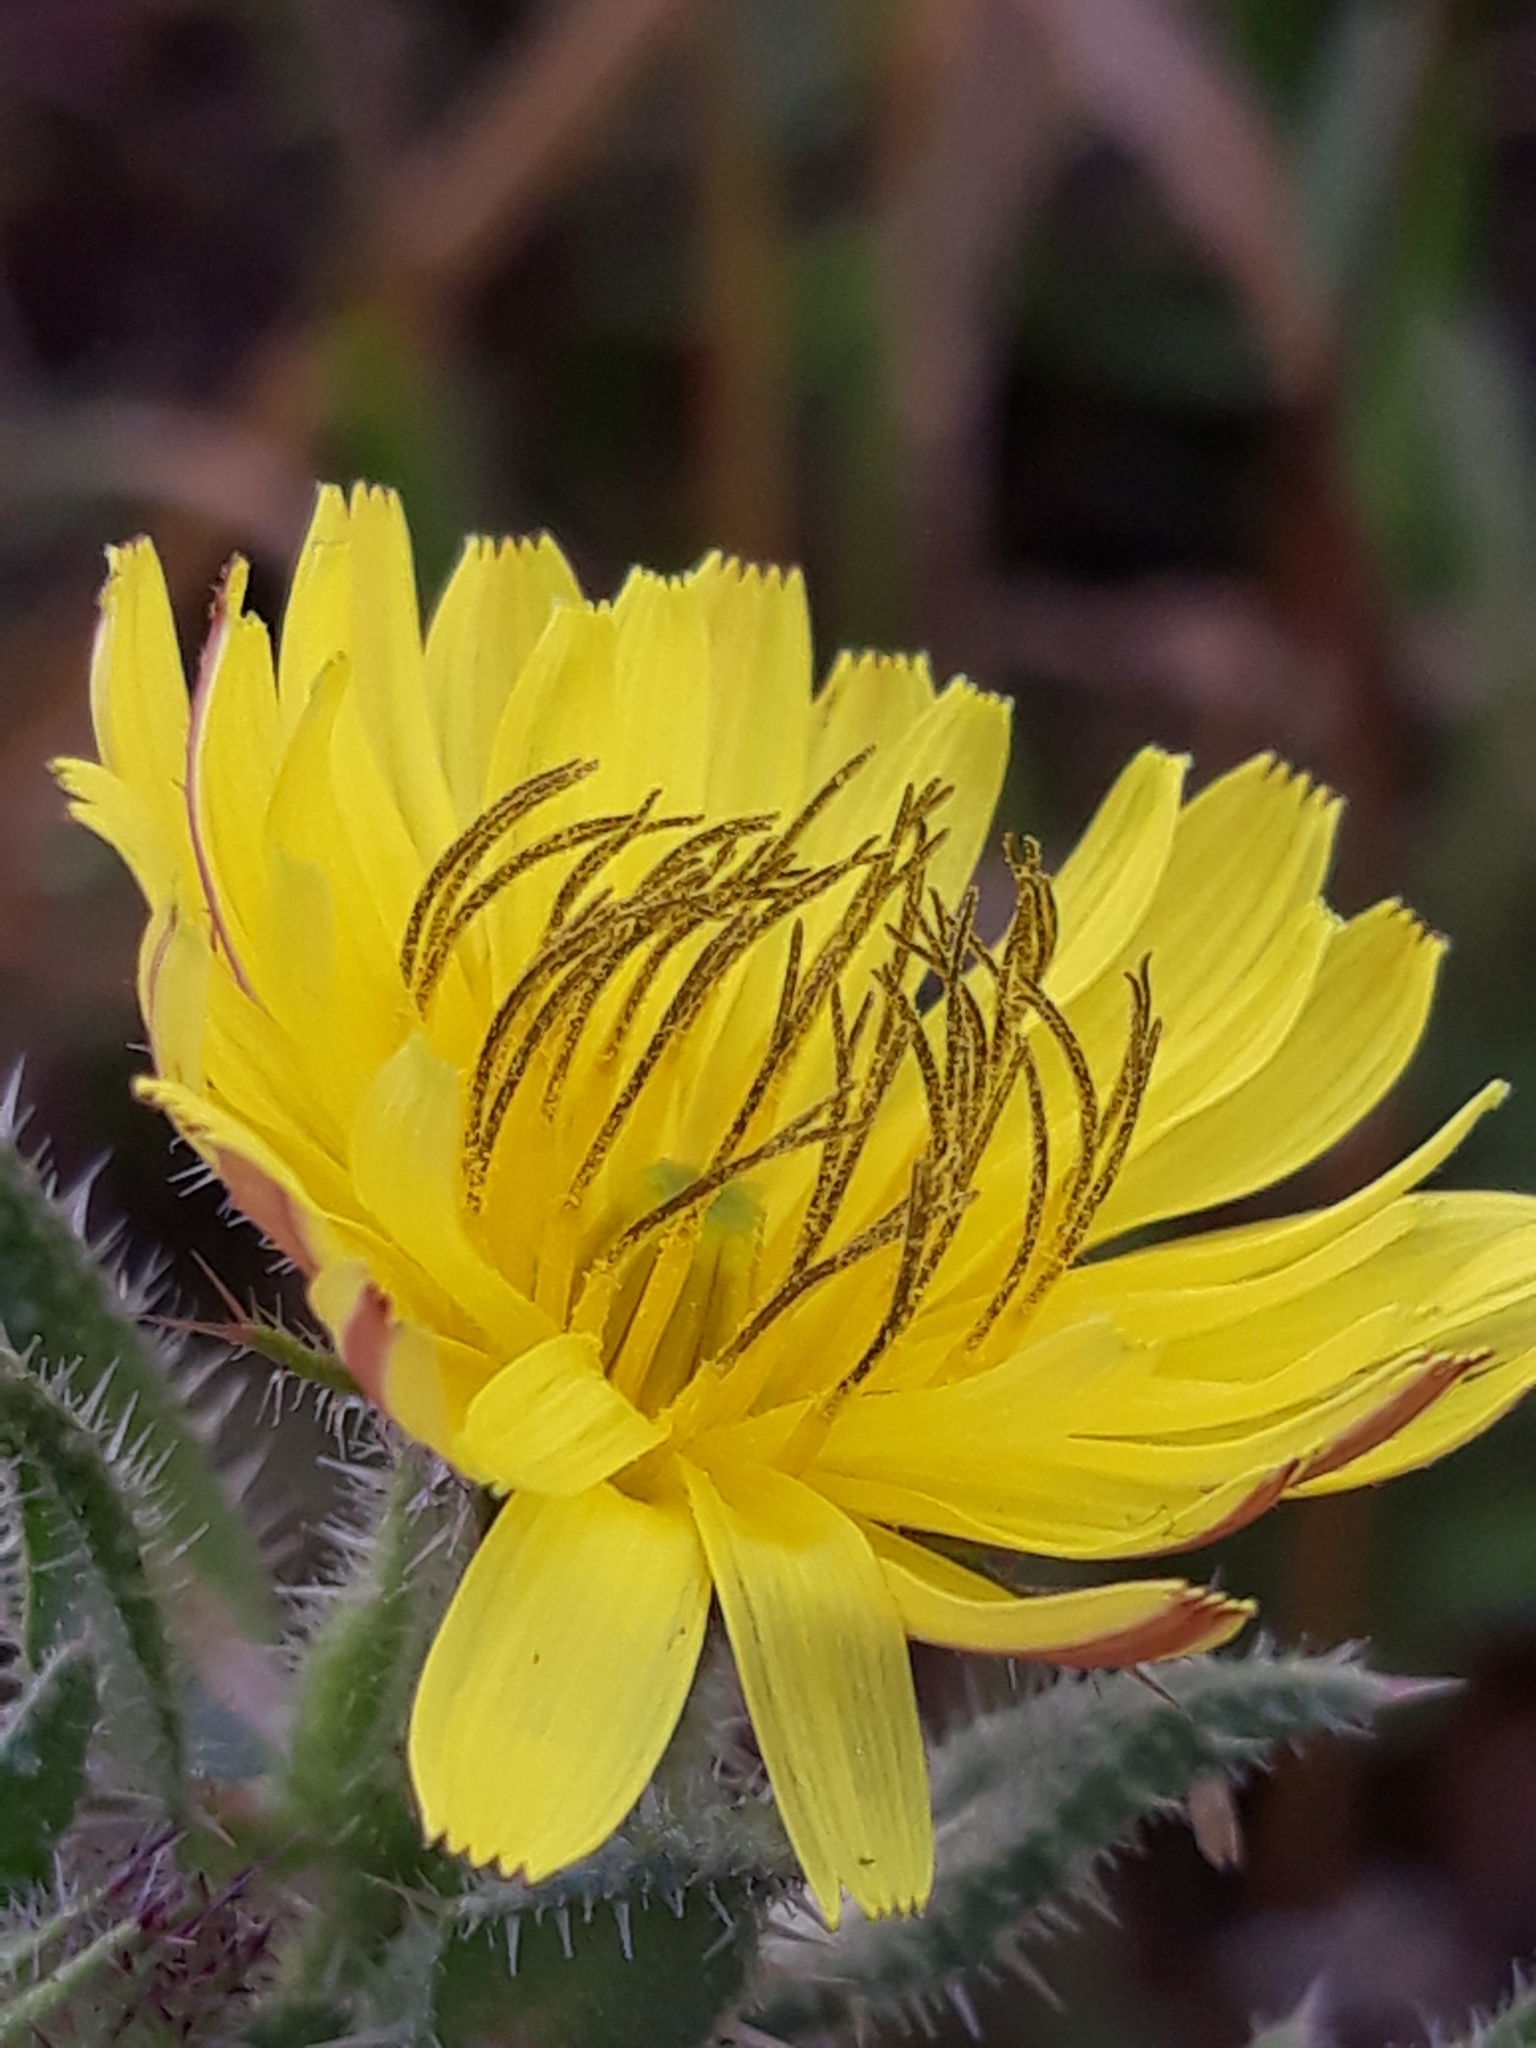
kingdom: Plantae
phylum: Tracheophyta
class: Magnoliopsida
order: Asterales
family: Asteraceae
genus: Helminthotheca
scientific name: Helminthotheca echioides
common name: Ox-tongue
